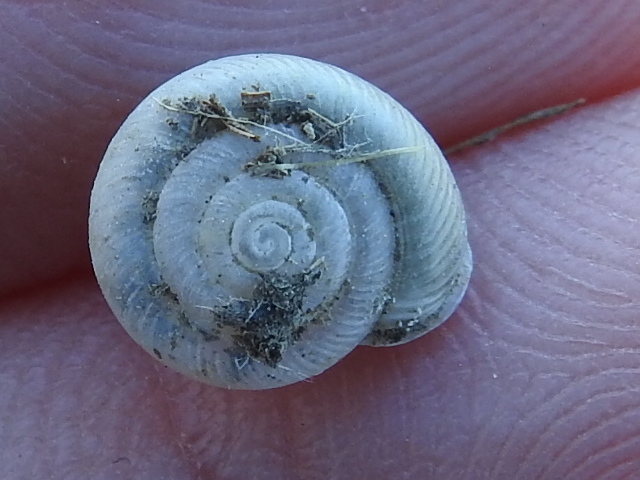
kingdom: Animalia
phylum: Mollusca
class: Gastropoda
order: Stylommatophora
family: Polygyridae
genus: Linisa
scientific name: Linisa texasiana
